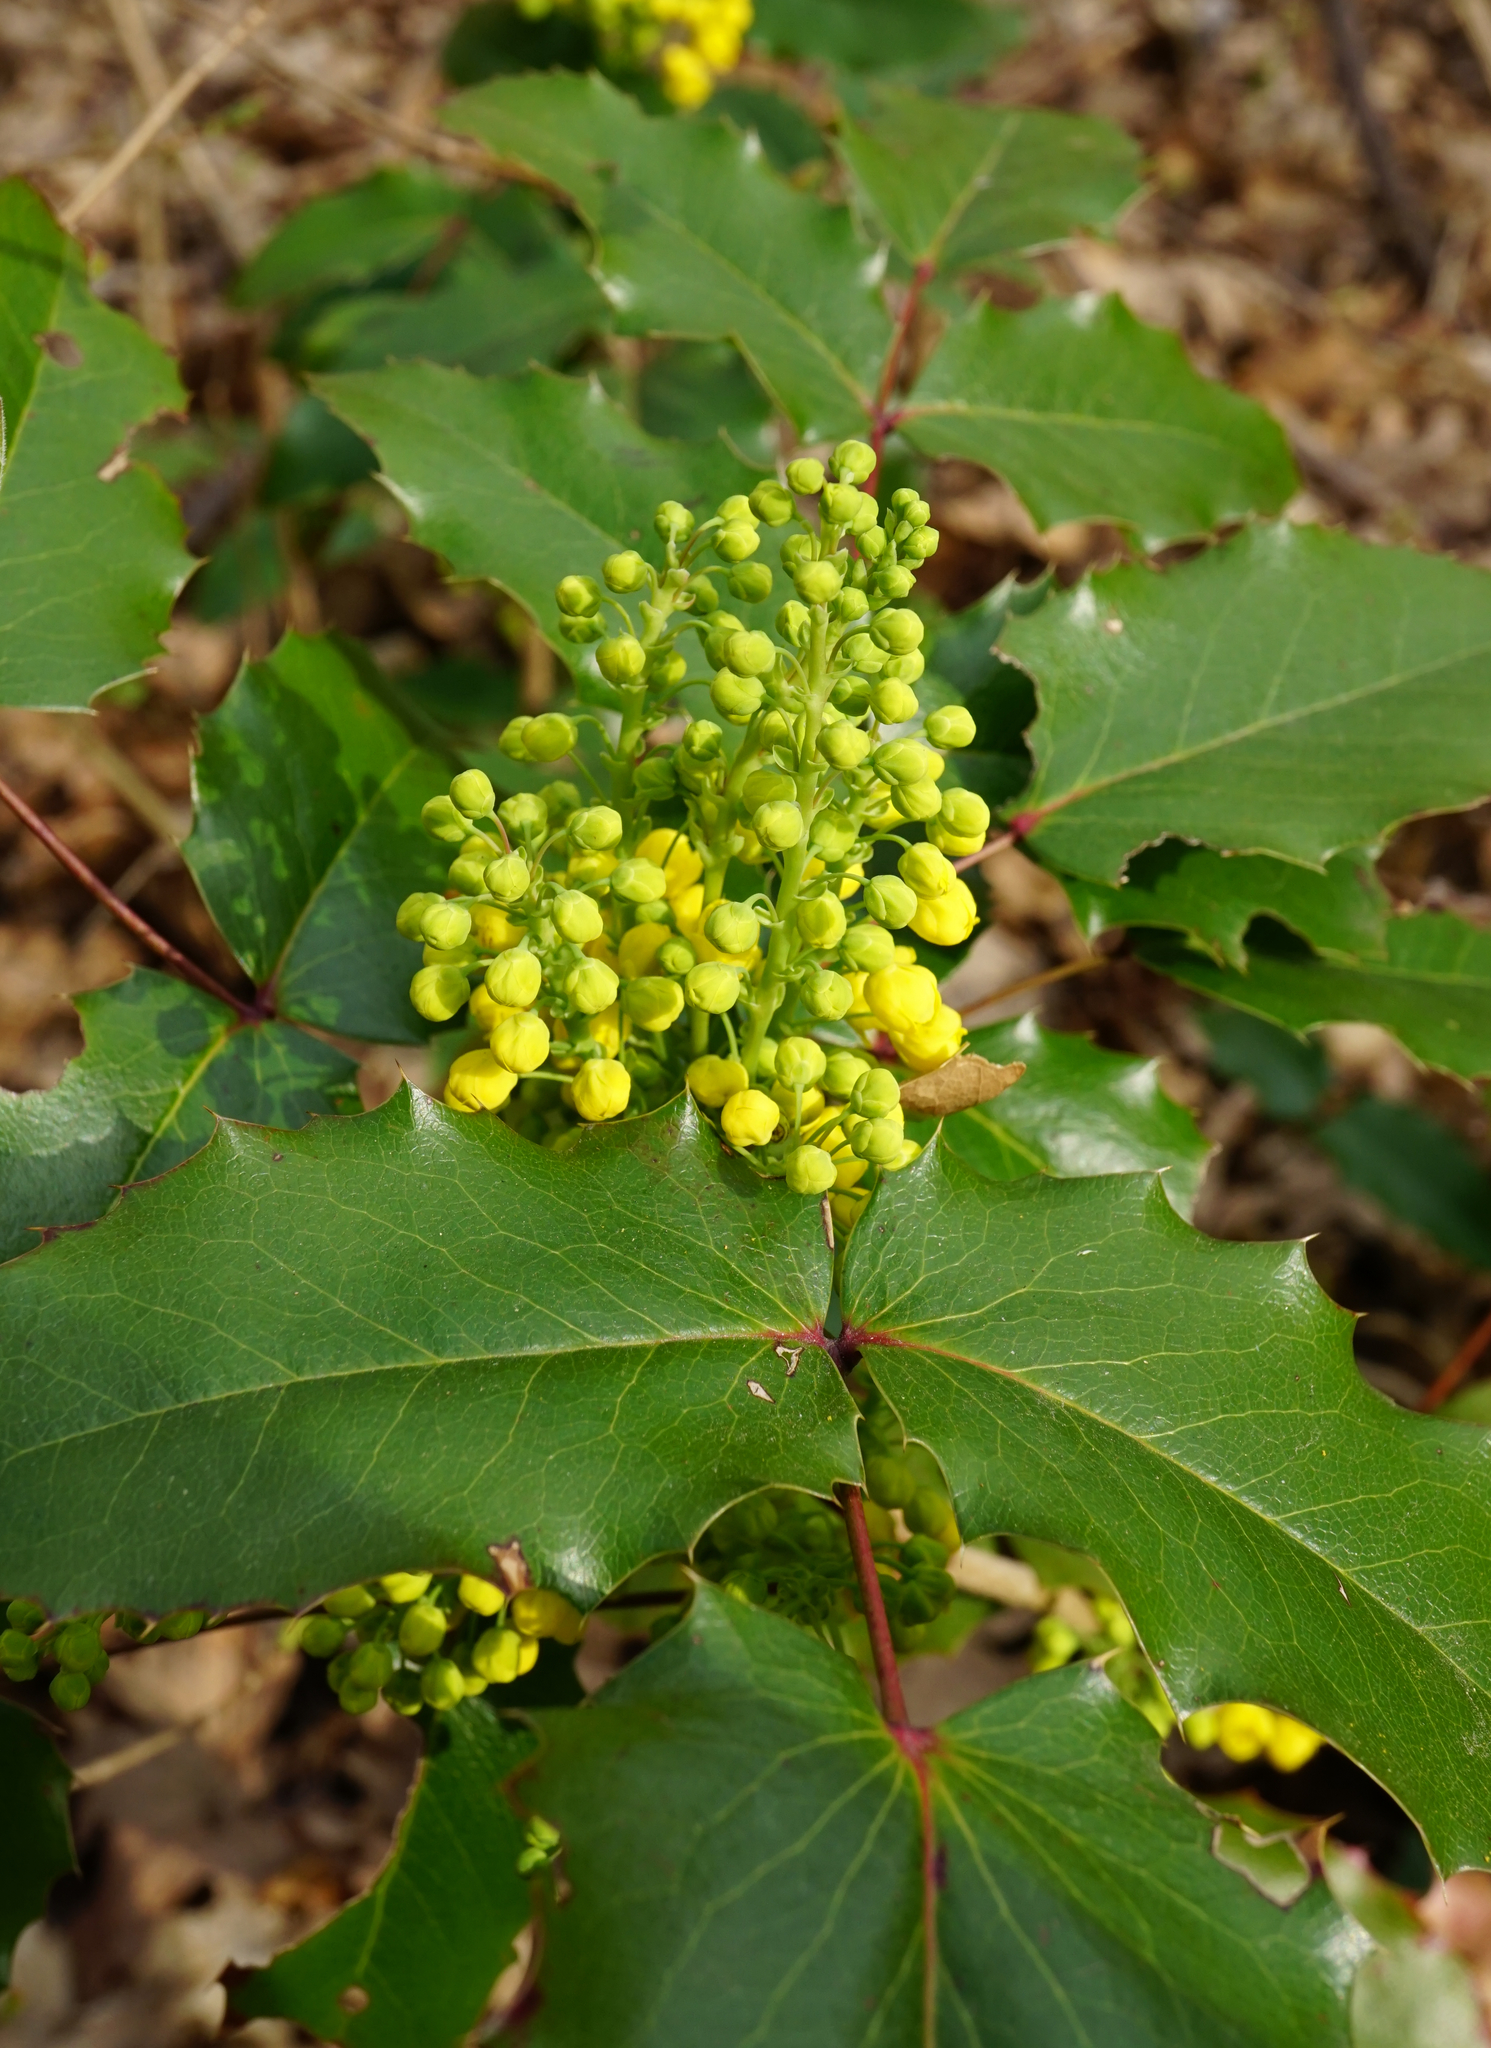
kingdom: Plantae
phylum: Tracheophyta
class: Magnoliopsida
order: Ranunculales
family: Berberidaceae
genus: Mahonia
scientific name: Mahonia aquifolium
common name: Oregon-grape
